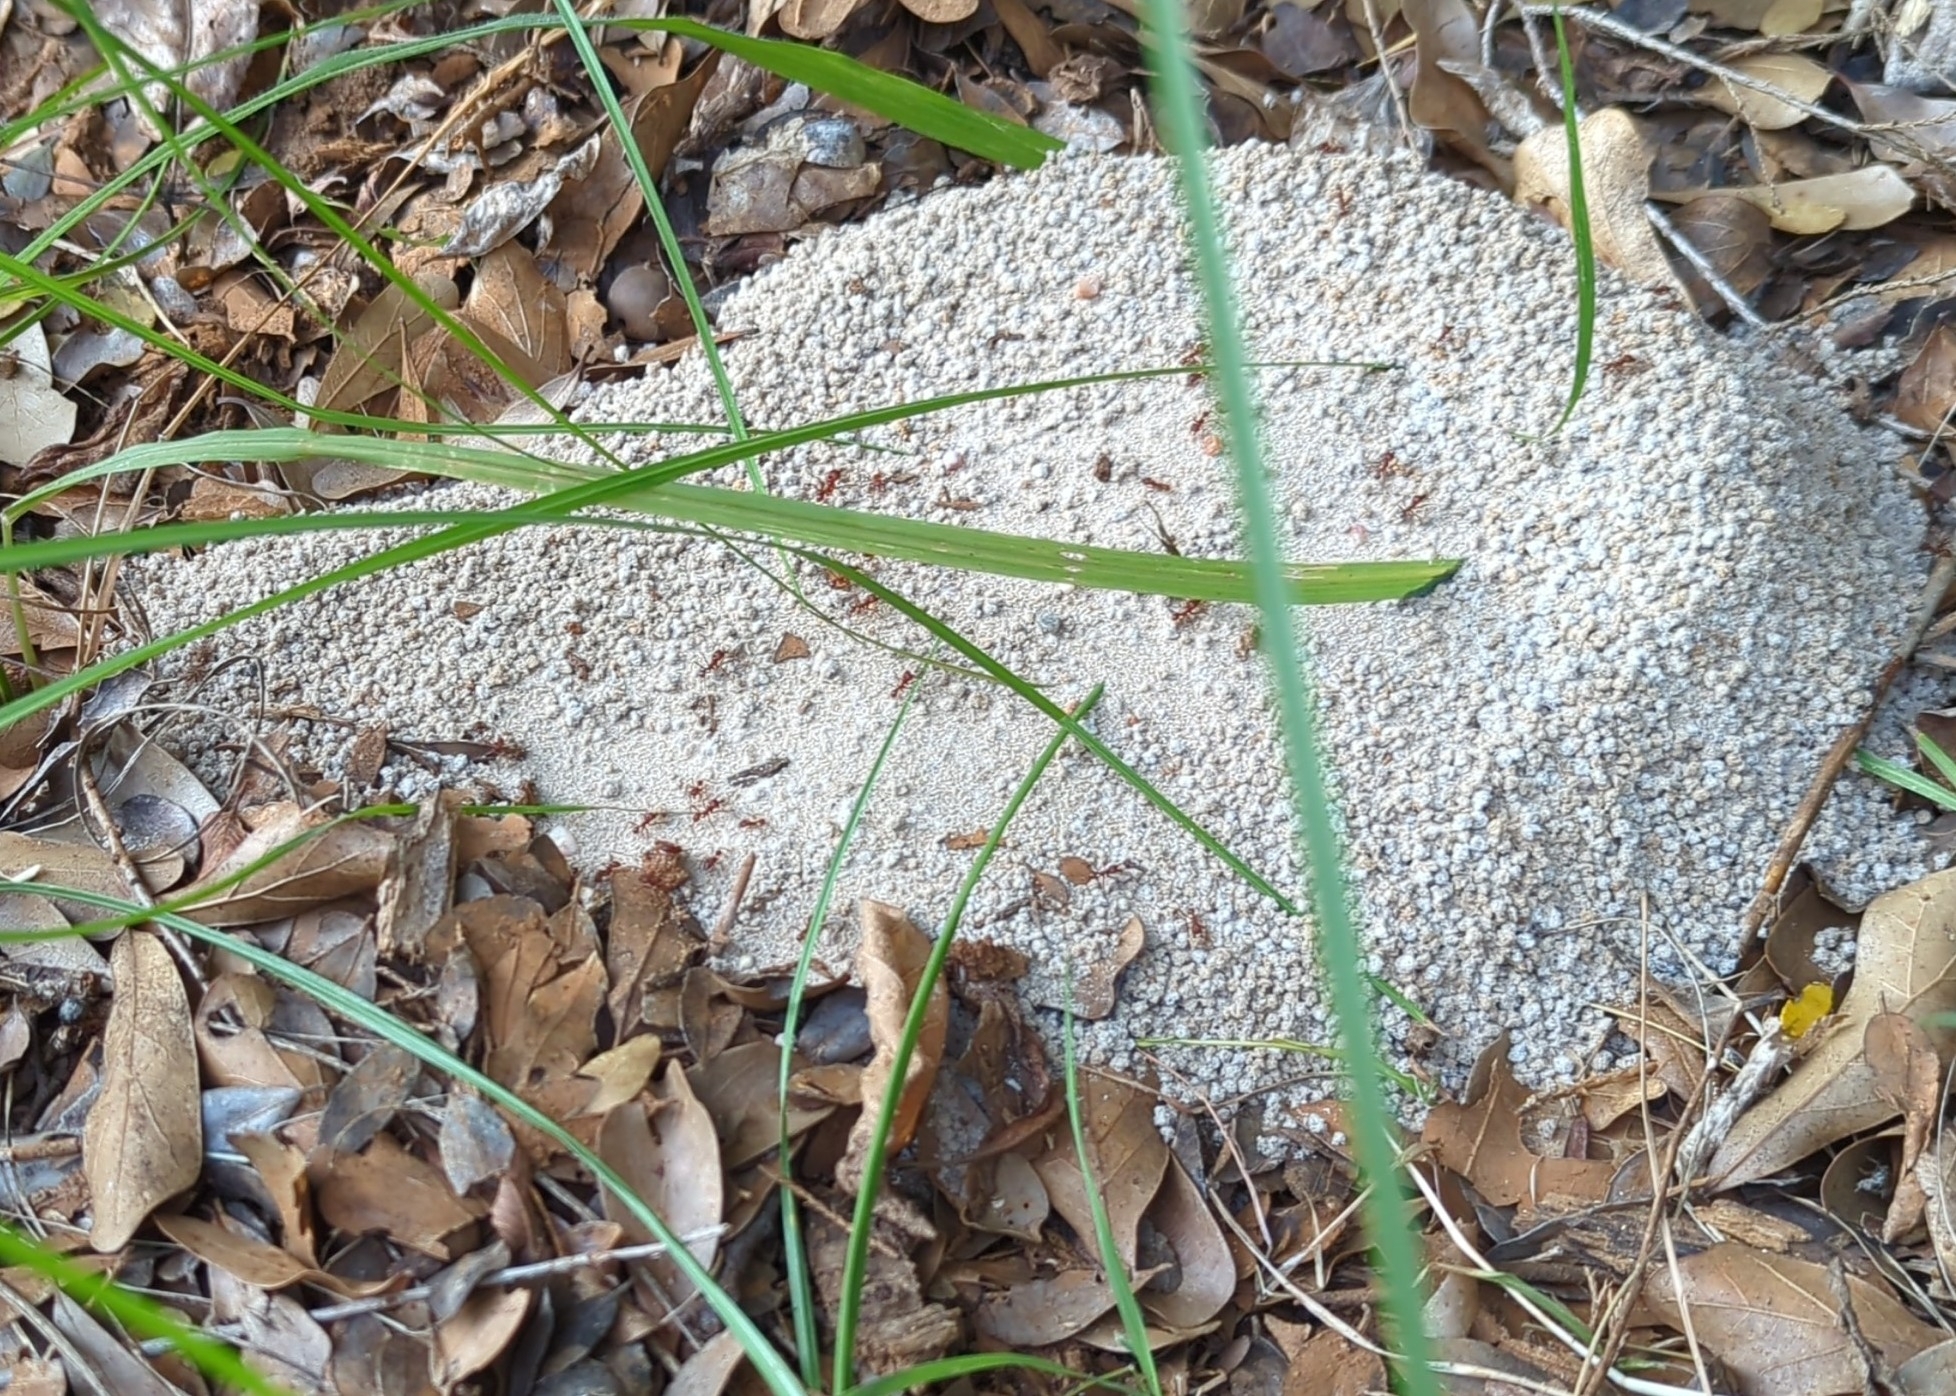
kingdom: Animalia
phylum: Arthropoda
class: Insecta
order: Hymenoptera
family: Formicidae
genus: Atta
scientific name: Atta texana
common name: Texas leafcutting ant
